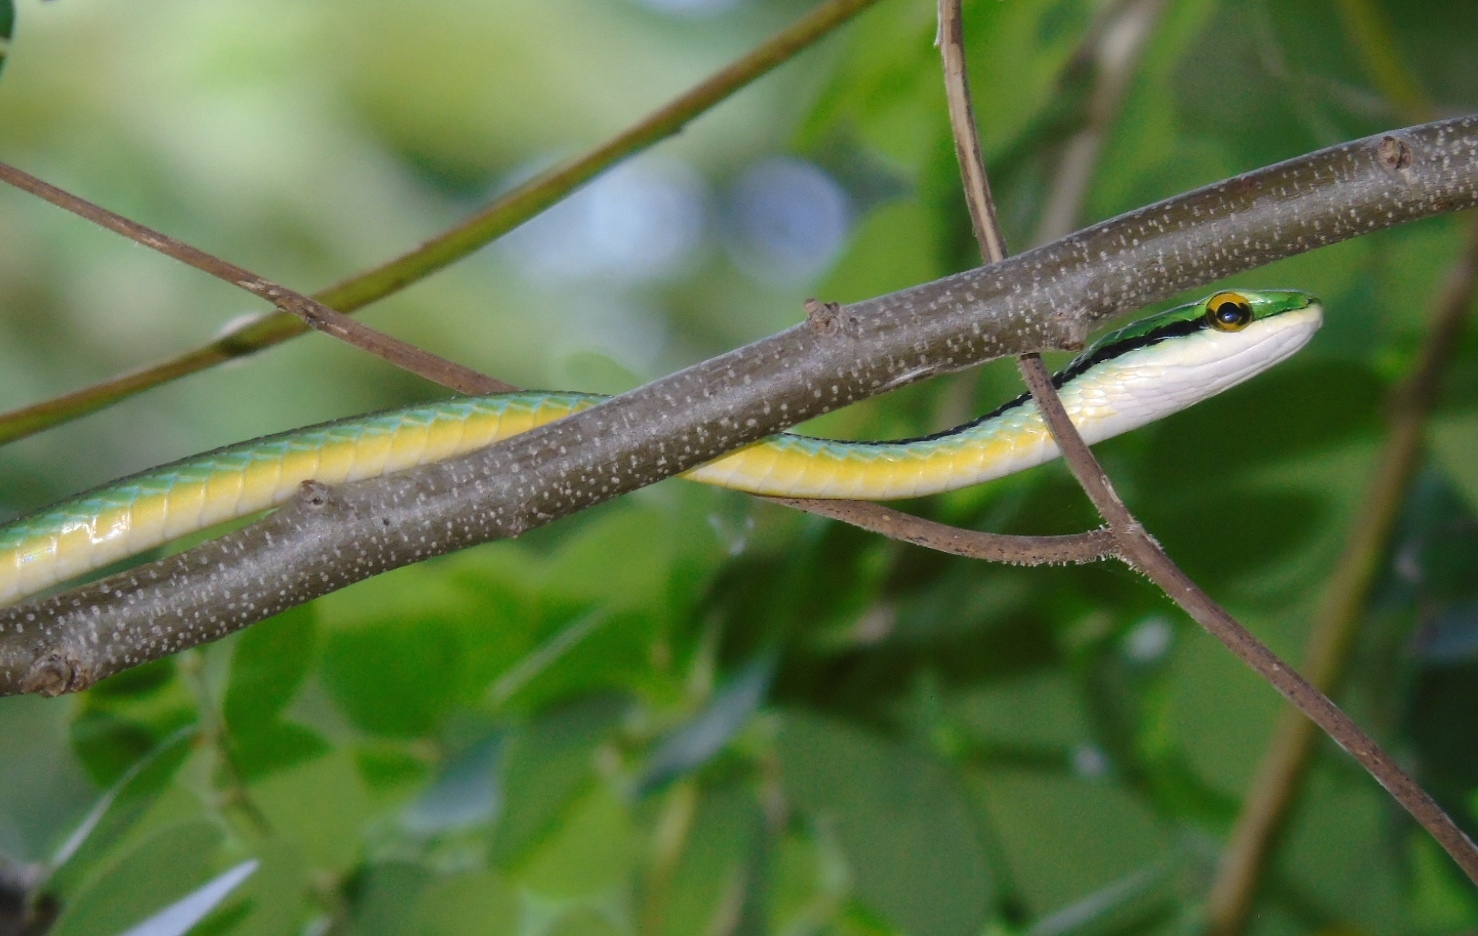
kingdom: Animalia
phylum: Chordata
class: Squamata
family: Colubridae
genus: Leptophis
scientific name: Leptophis diplotropis
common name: Pacific coast parrot snake
